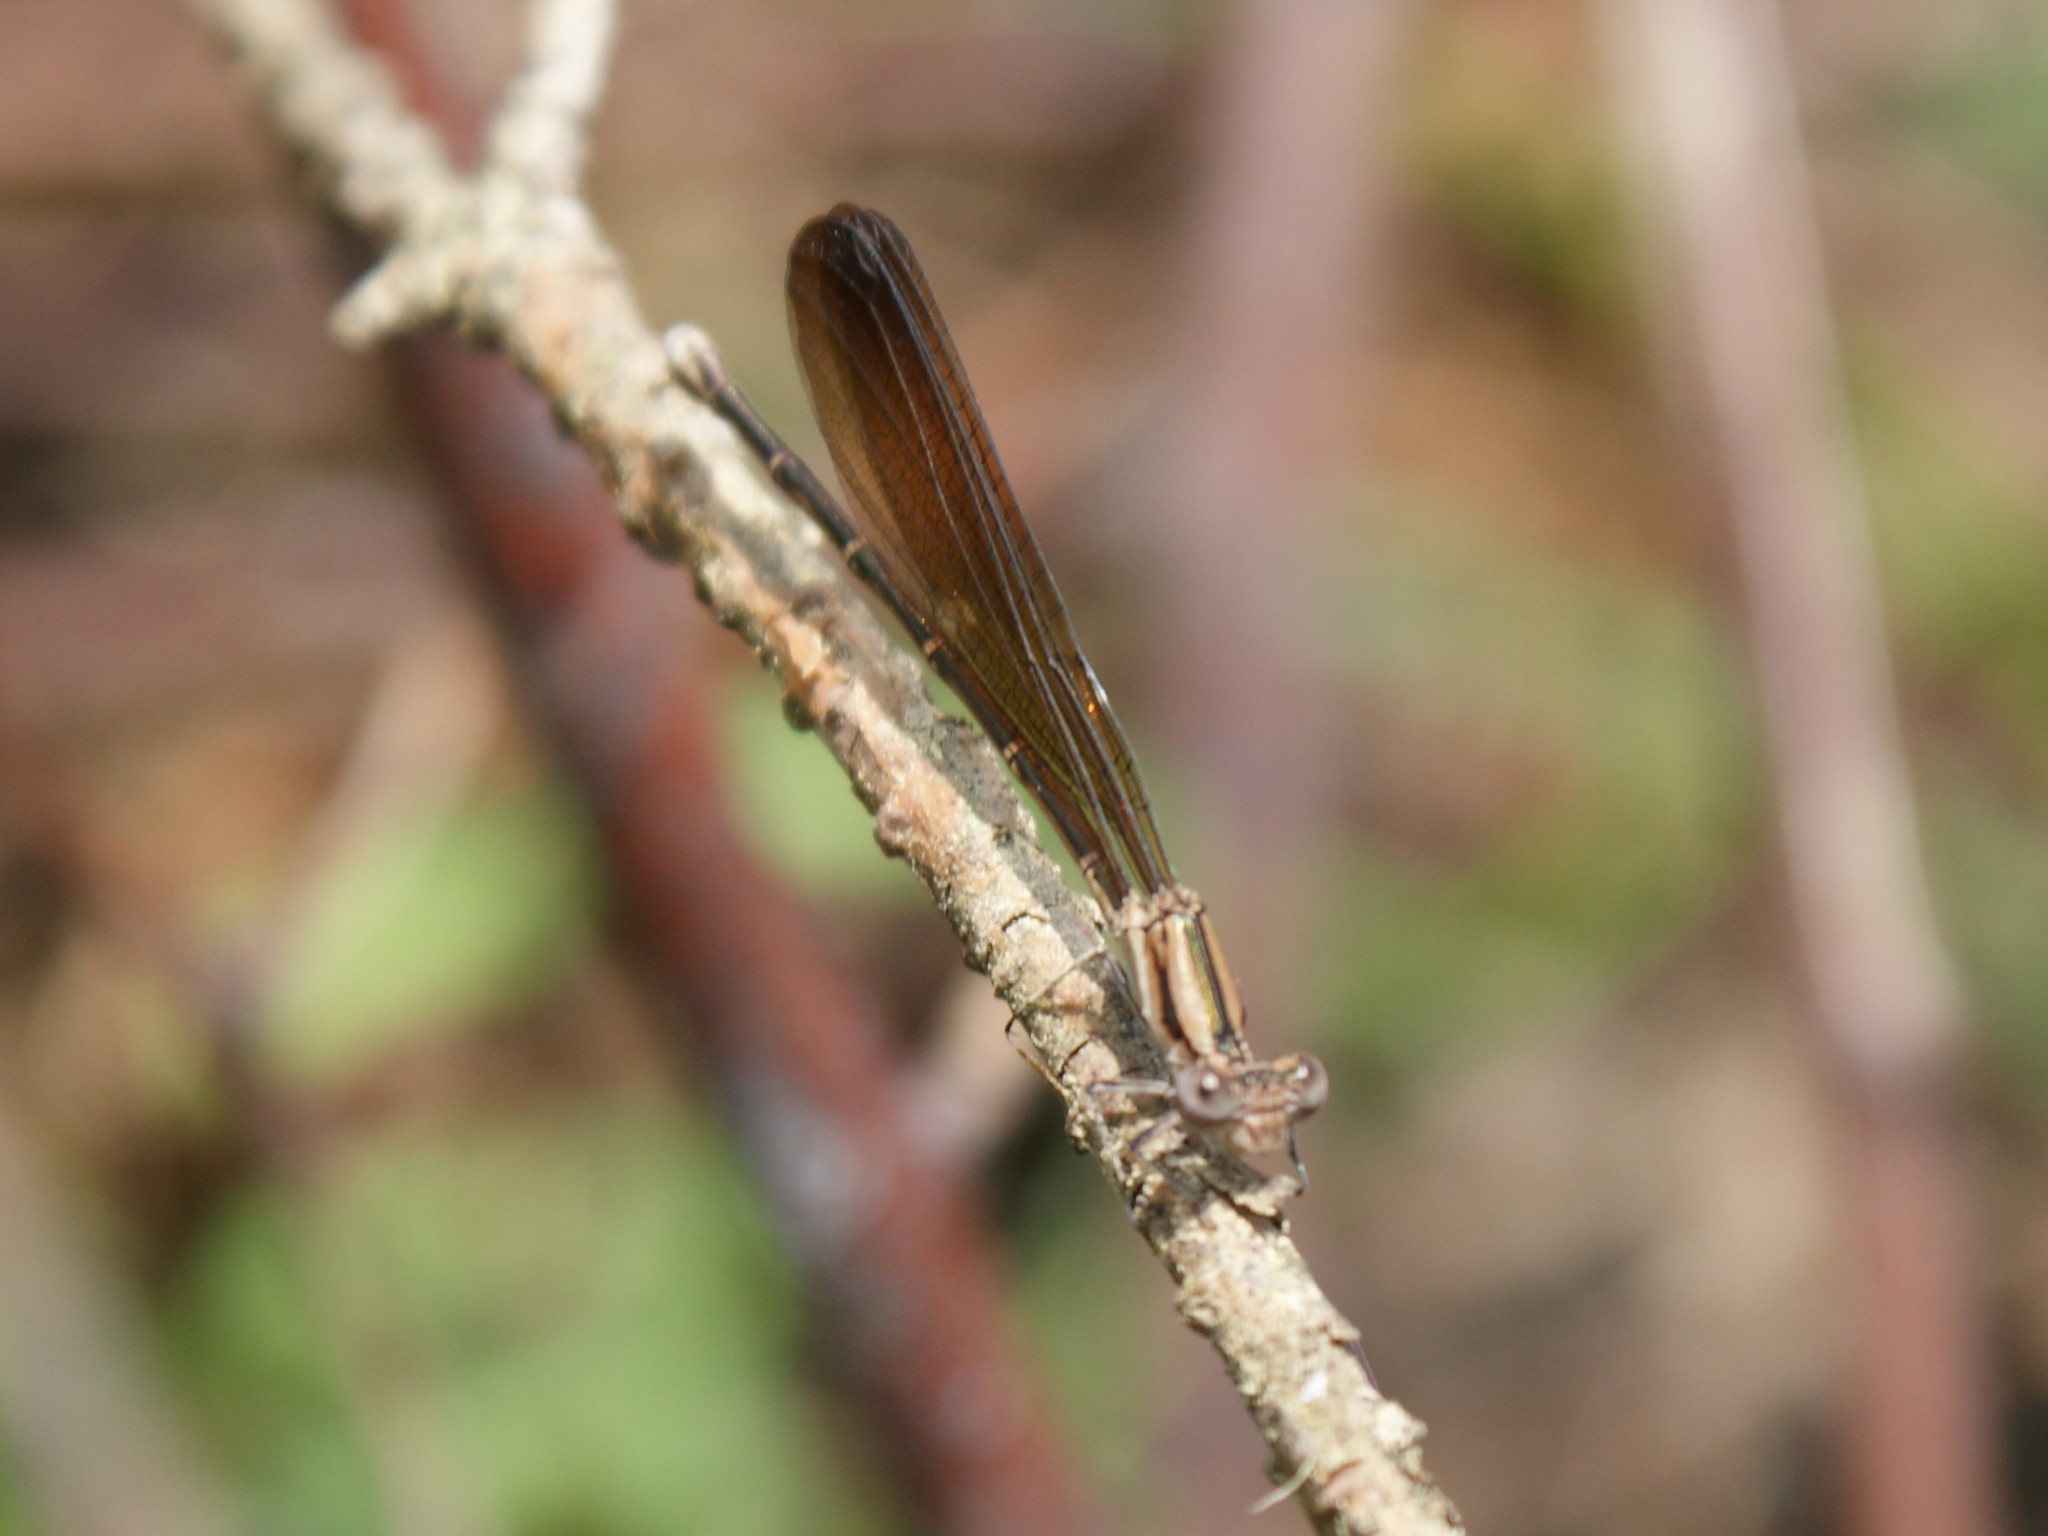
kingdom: Animalia
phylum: Arthropoda
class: Insecta
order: Odonata
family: Coenagrionidae
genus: Argia
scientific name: Argia fumipennis
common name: Variable dancer
